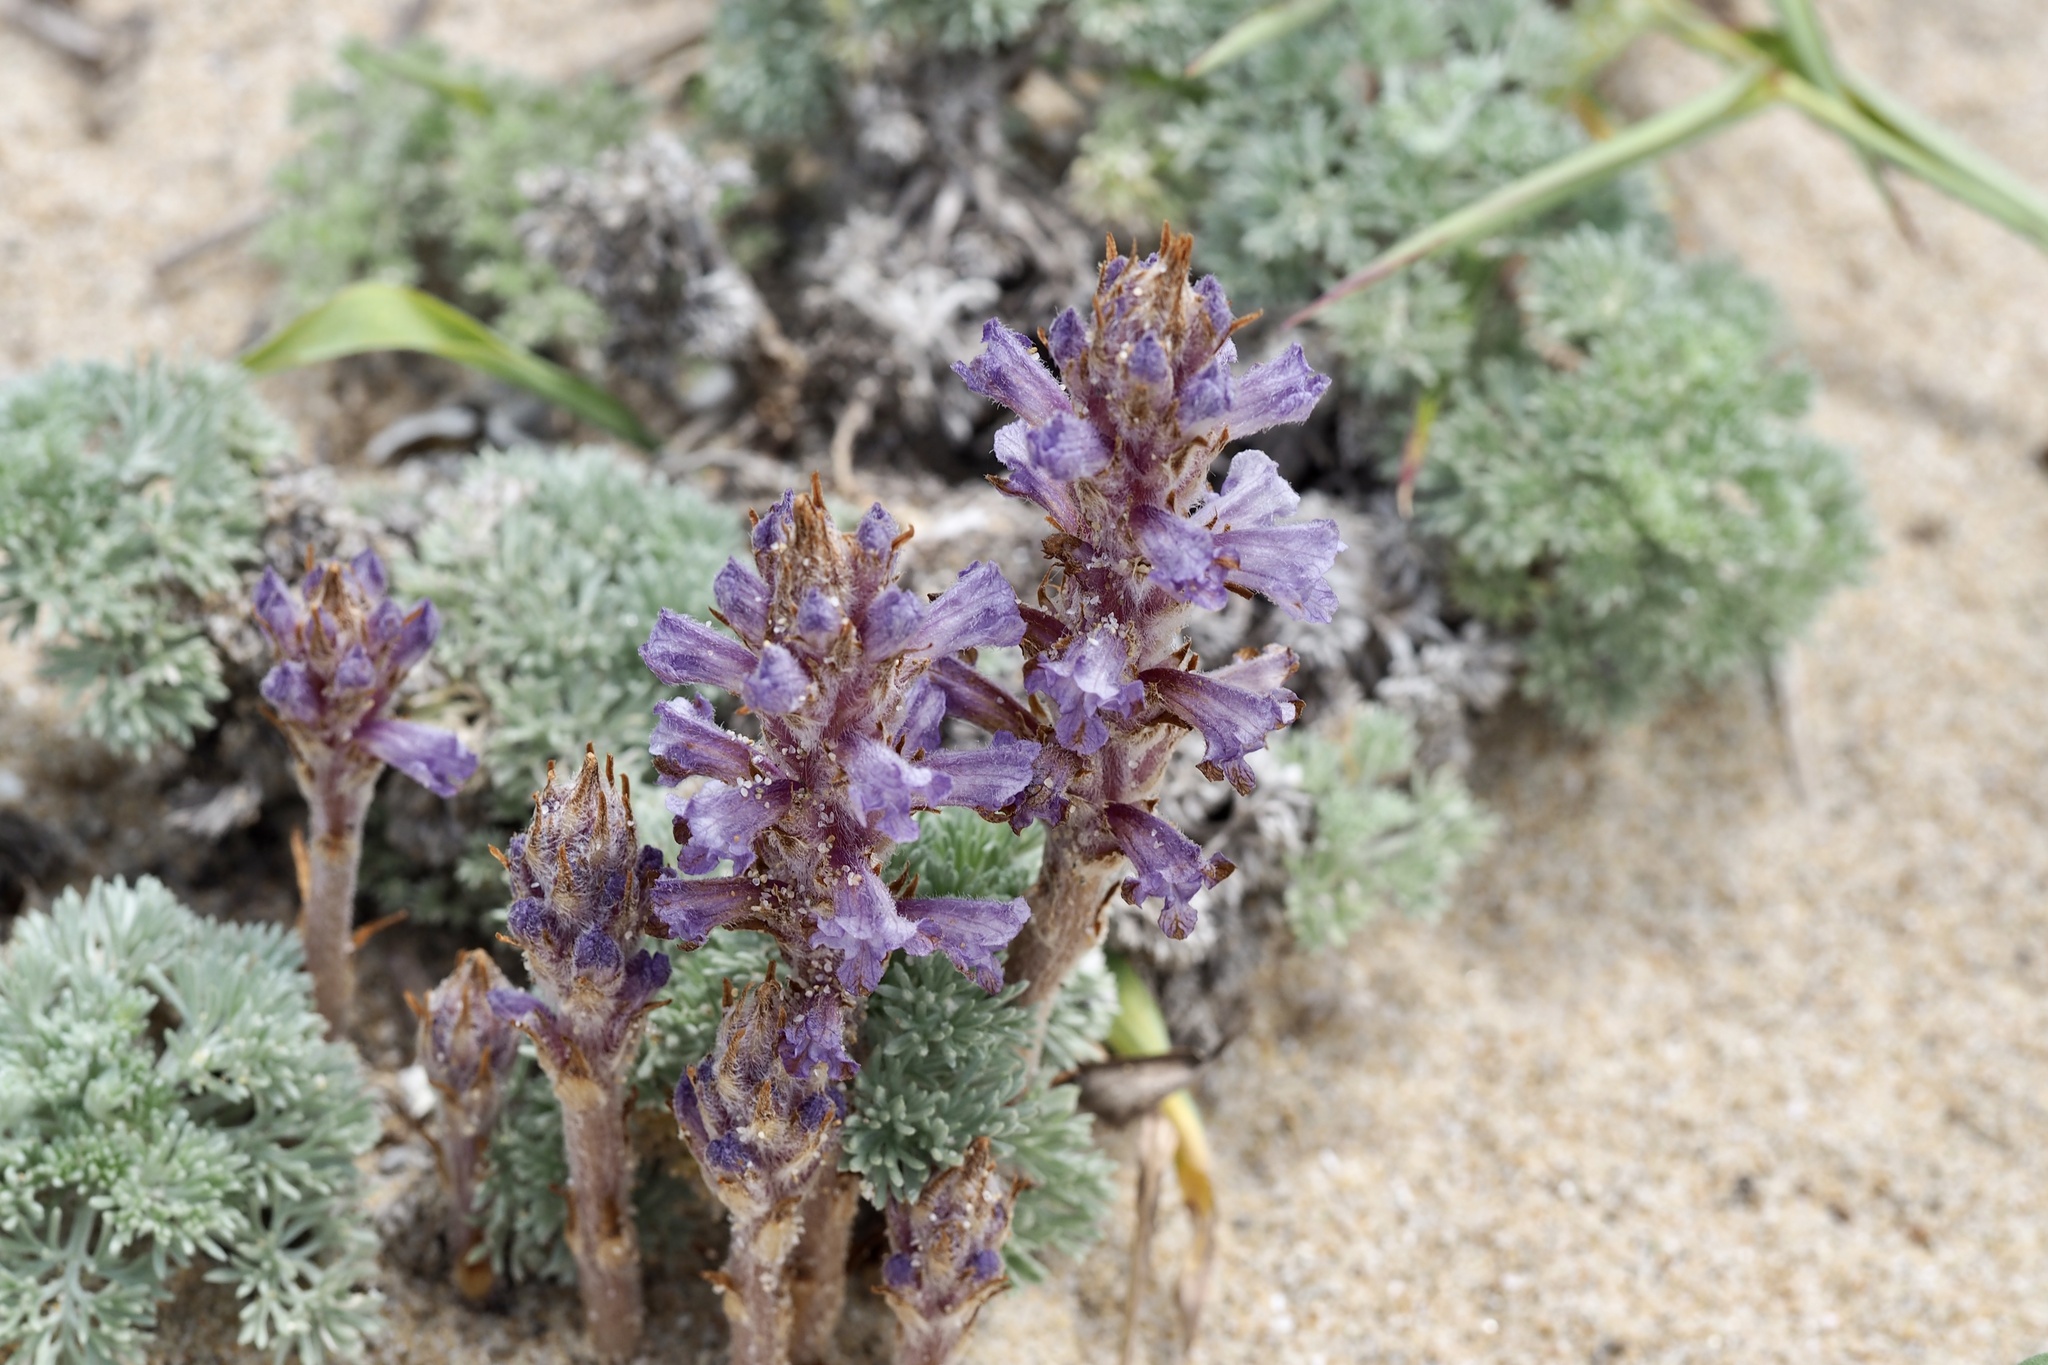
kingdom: Plantae
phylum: Tracheophyta
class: Magnoliopsida
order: Lamiales
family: Orobanchaceae
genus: Orobanche
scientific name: Orobanche coerulescens
